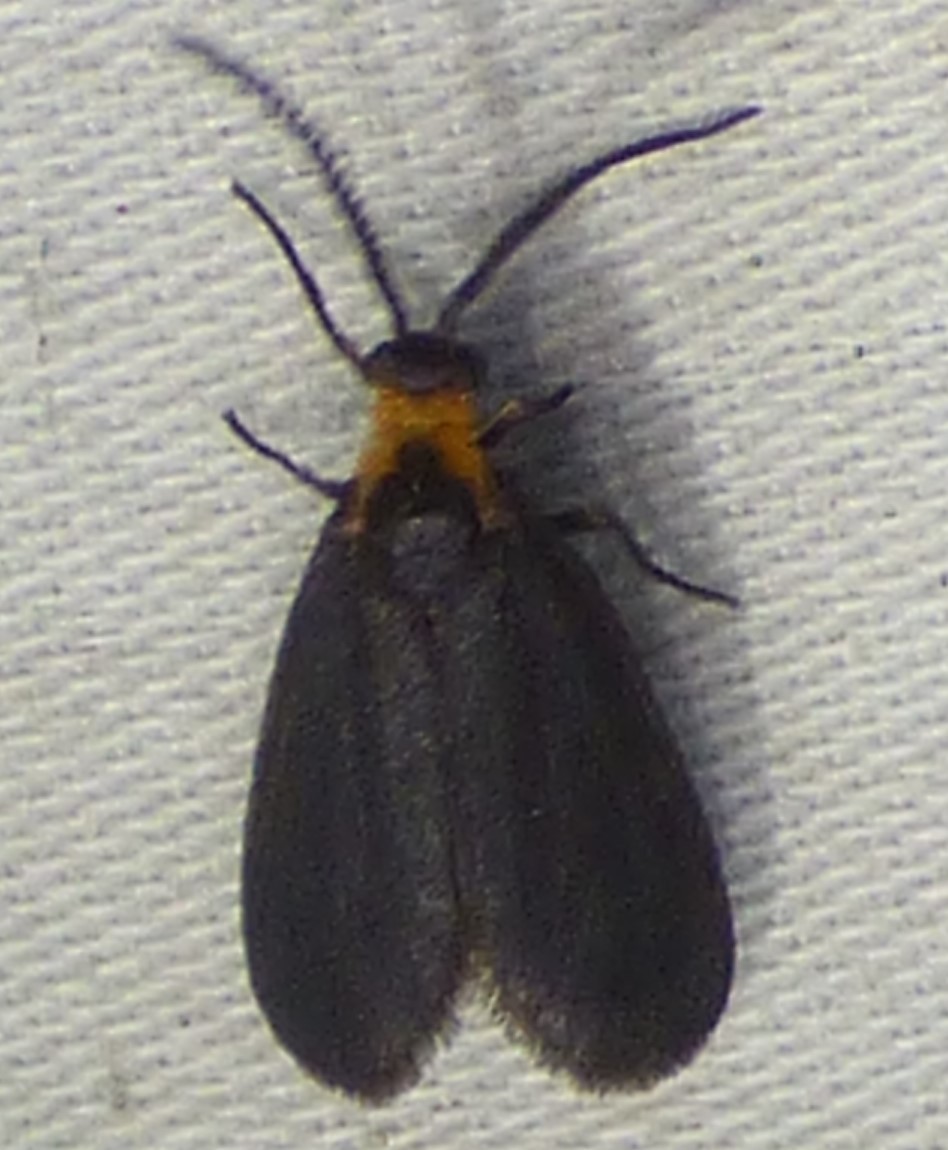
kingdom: Animalia
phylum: Arthropoda
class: Insecta
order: Lepidoptera
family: Zygaenidae
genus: Acoloithus
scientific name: Acoloithus falsarius
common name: Clemens' false skeletonizer
